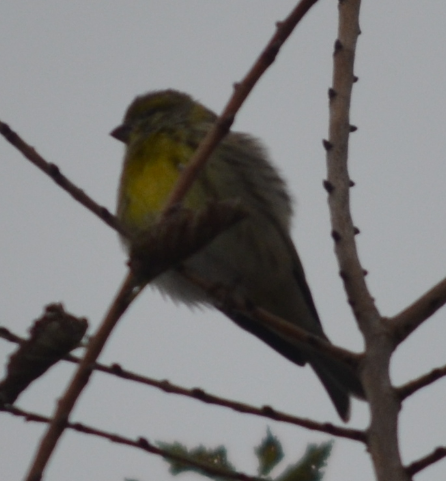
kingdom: Animalia
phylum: Chordata
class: Aves
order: Passeriformes
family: Fringillidae
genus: Serinus
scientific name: Serinus serinus
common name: European serin
